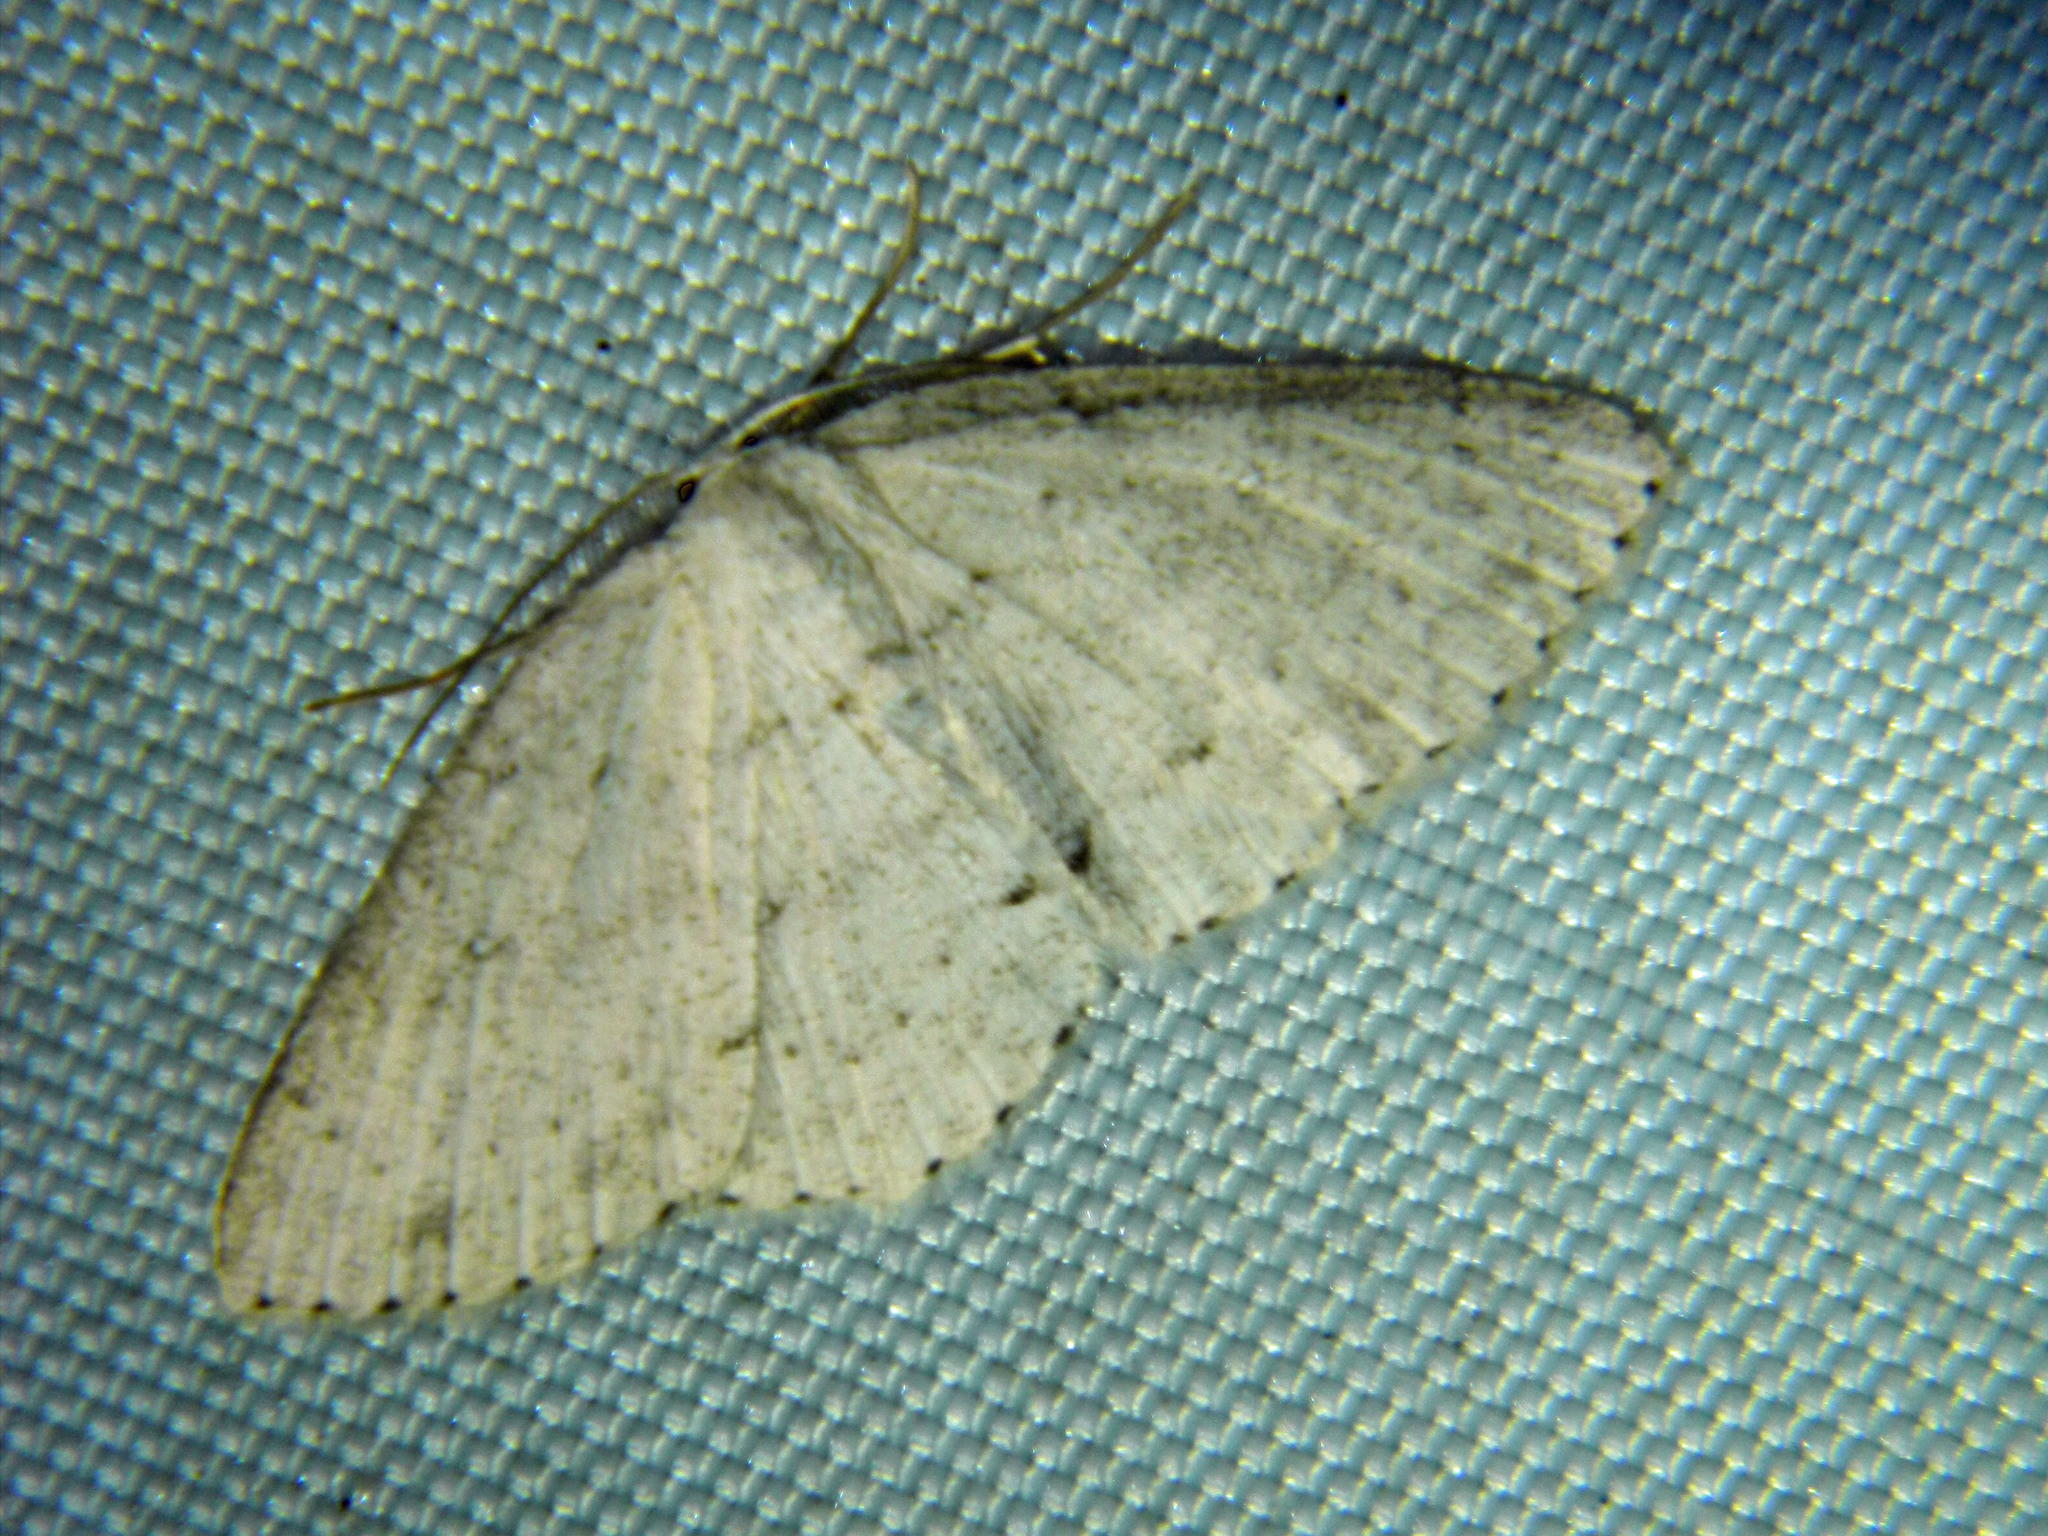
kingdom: Animalia
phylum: Arthropoda
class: Insecta
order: Lepidoptera
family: Geometridae
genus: Cyclophora
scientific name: Cyclophora pendulinaria
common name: Sweet fern geometer
